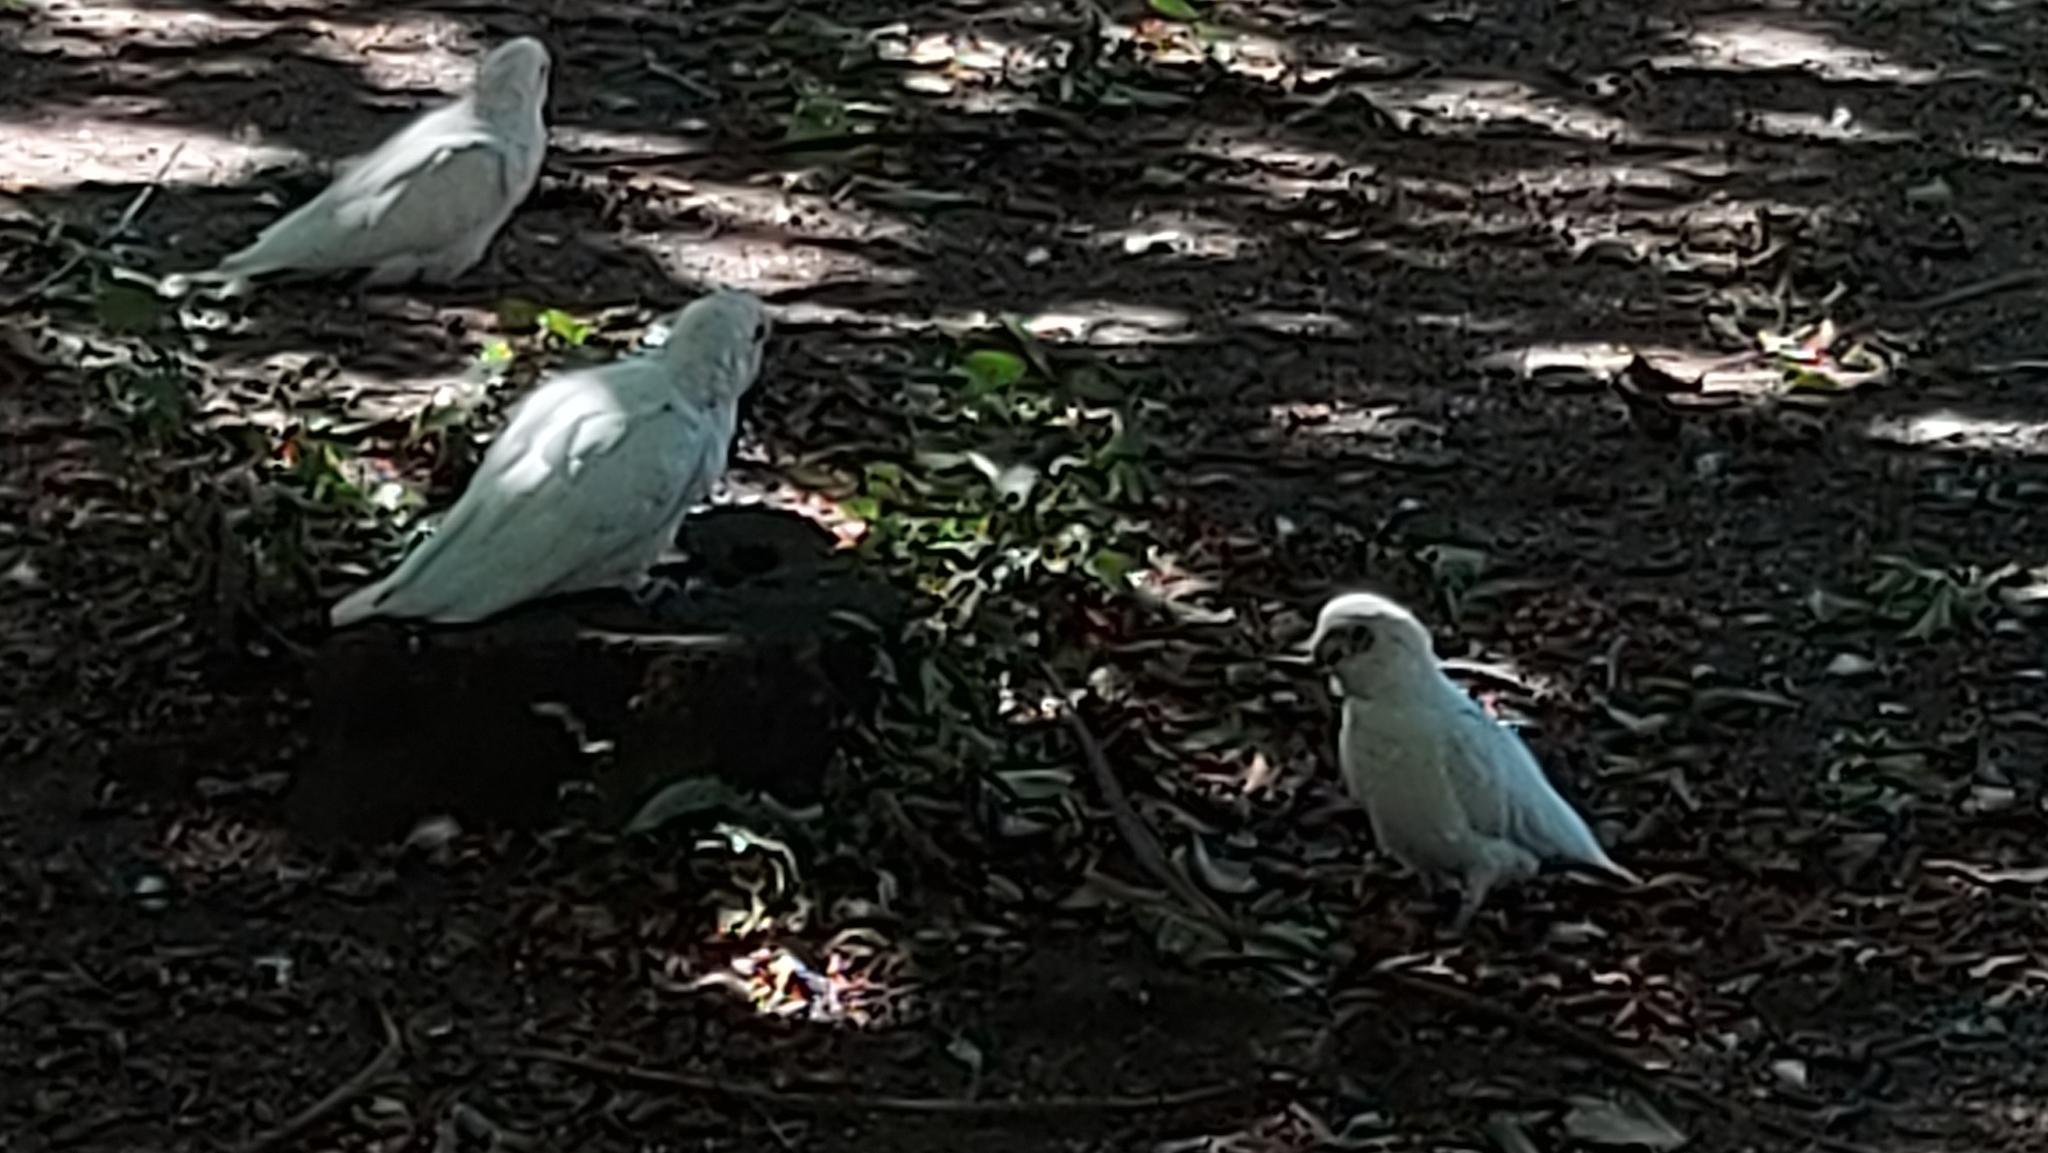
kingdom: Animalia
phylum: Chordata
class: Aves
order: Psittaciformes
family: Psittacidae
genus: Cacatua
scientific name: Cacatua sanguinea
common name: Little corella
